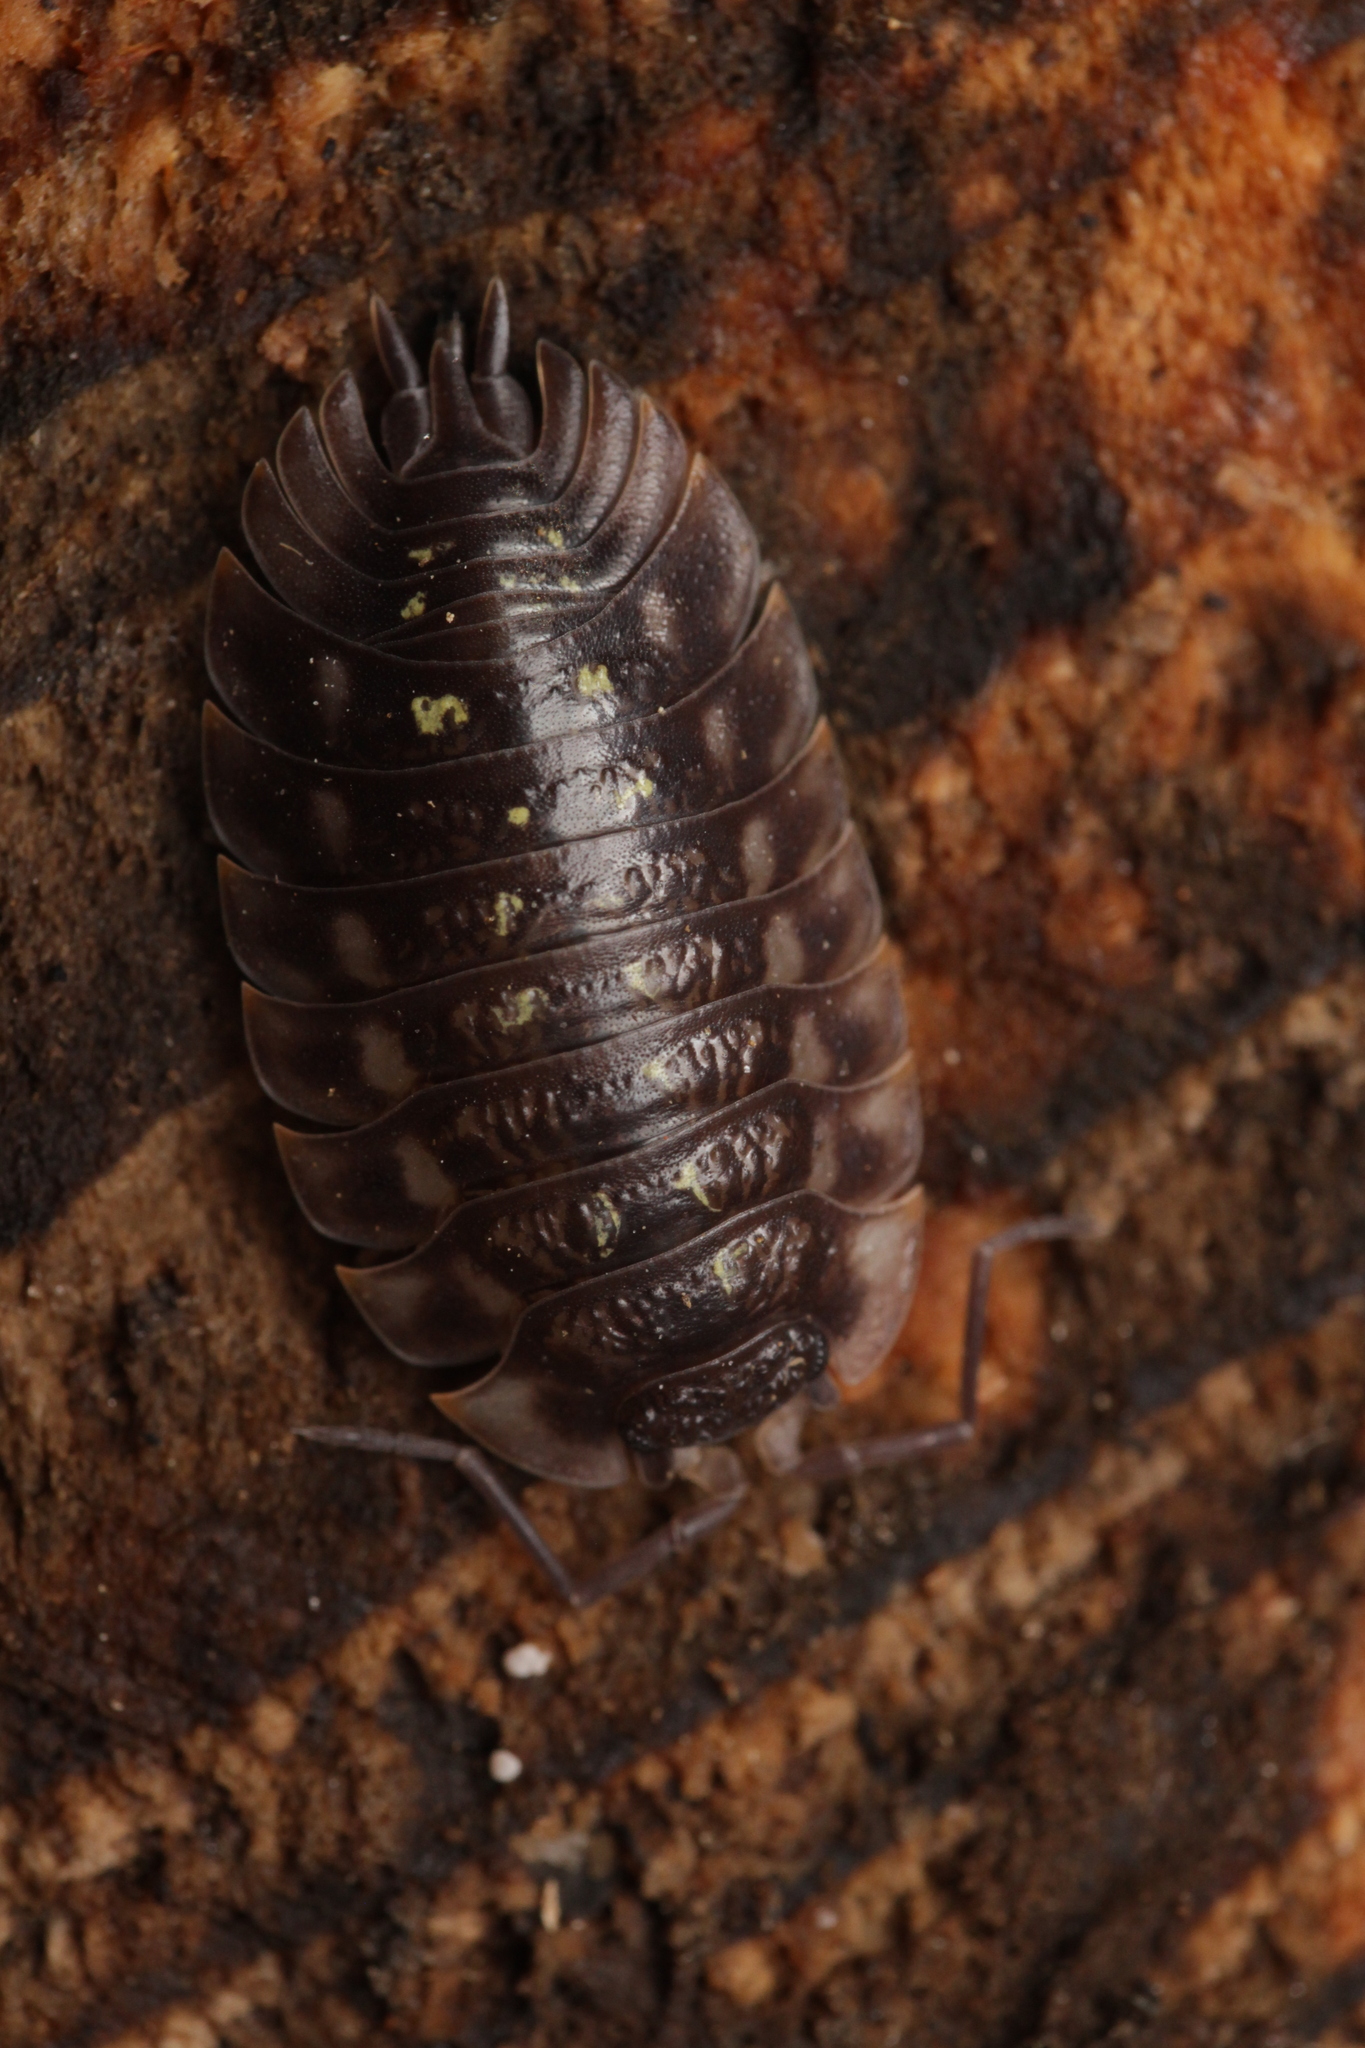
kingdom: Animalia
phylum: Arthropoda
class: Malacostraca
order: Isopoda
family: Oniscidae
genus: Oniscus
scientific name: Oniscus asellus
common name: Common shiny woodlouse
